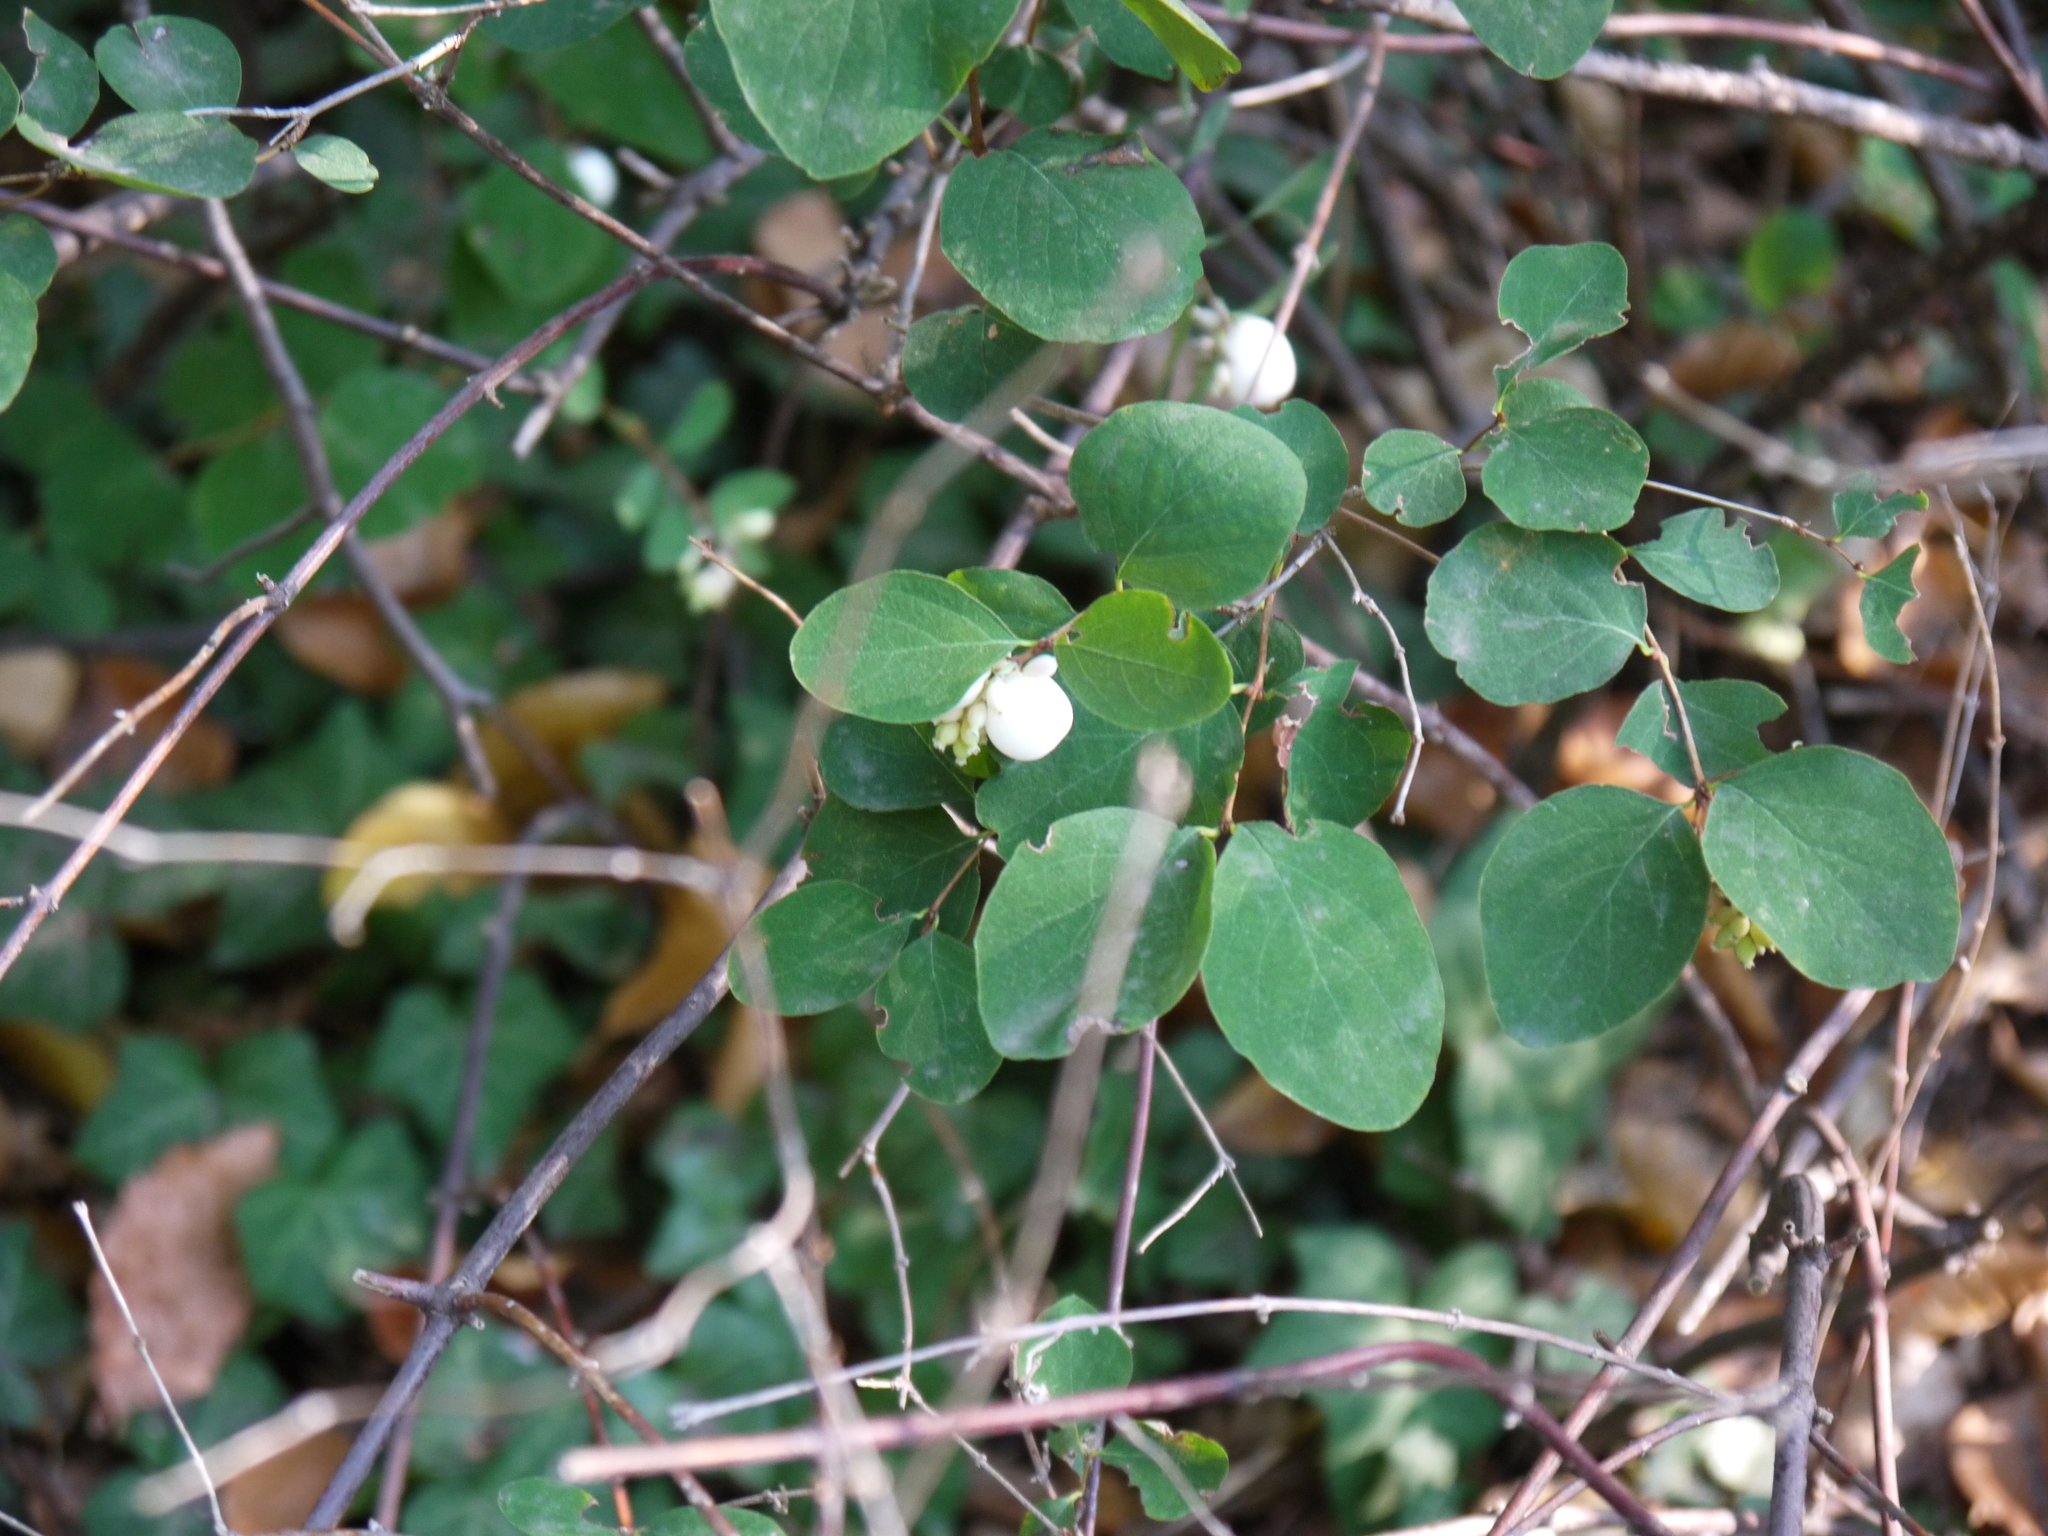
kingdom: Plantae
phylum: Tracheophyta
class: Magnoliopsida
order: Dipsacales
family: Caprifoliaceae
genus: Symphoricarpos
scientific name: Symphoricarpos albus
